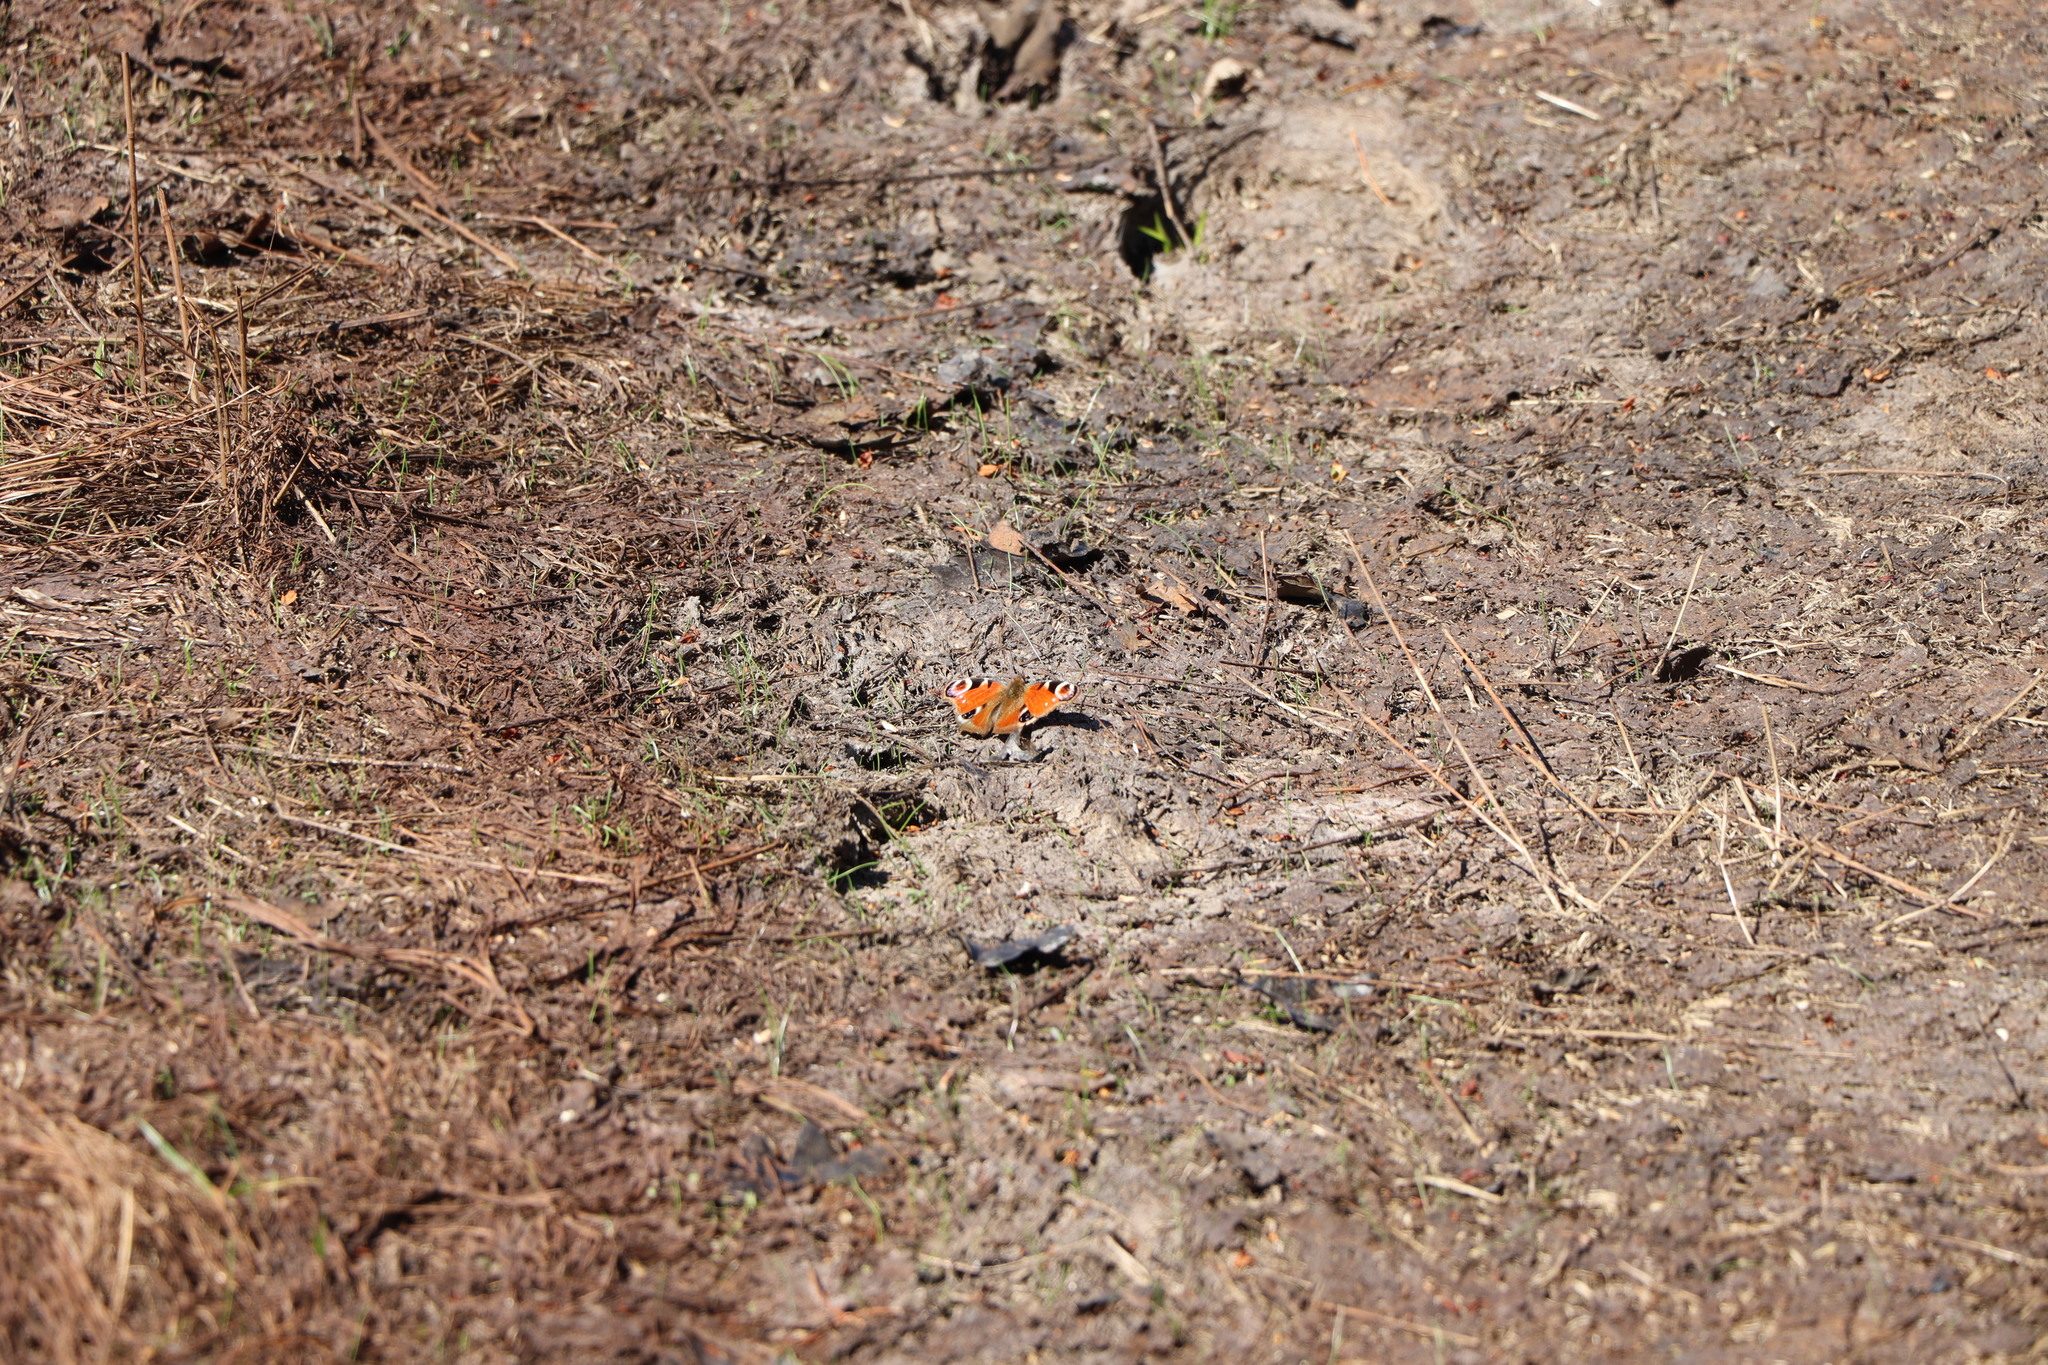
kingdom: Animalia
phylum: Arthropoda
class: Insecta
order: Lepidoptera
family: Nymphalidae
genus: Aglais
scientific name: Aglais io
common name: Peacock
